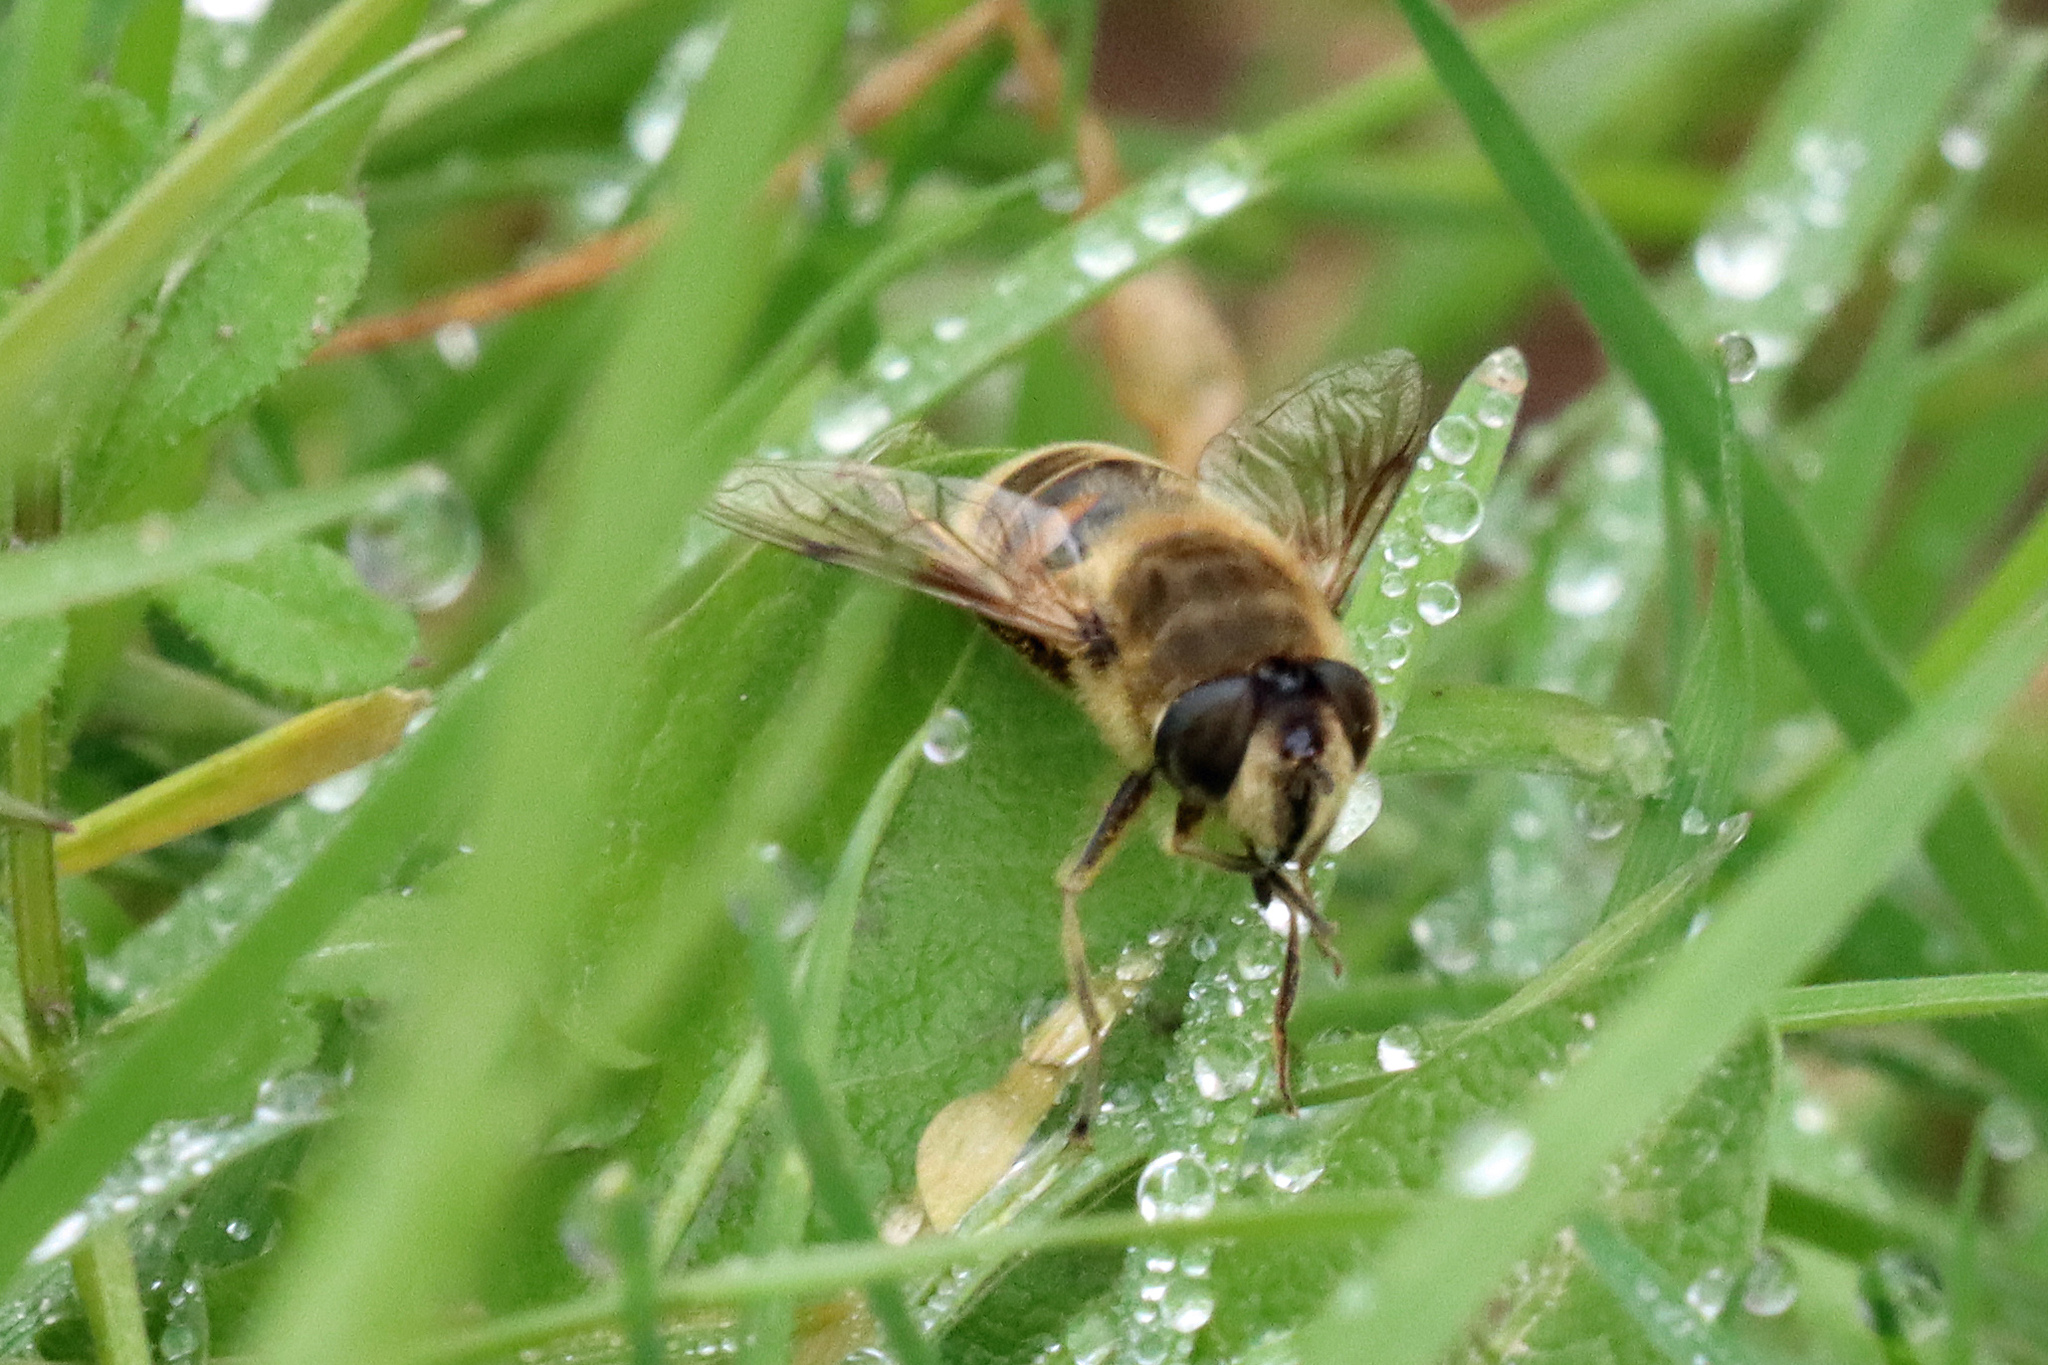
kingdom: Animalia
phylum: Arthropoda
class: Insecta
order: Diptera
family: Syrphidae
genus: Eristalis
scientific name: Eristalis tenax
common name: Drone fly
